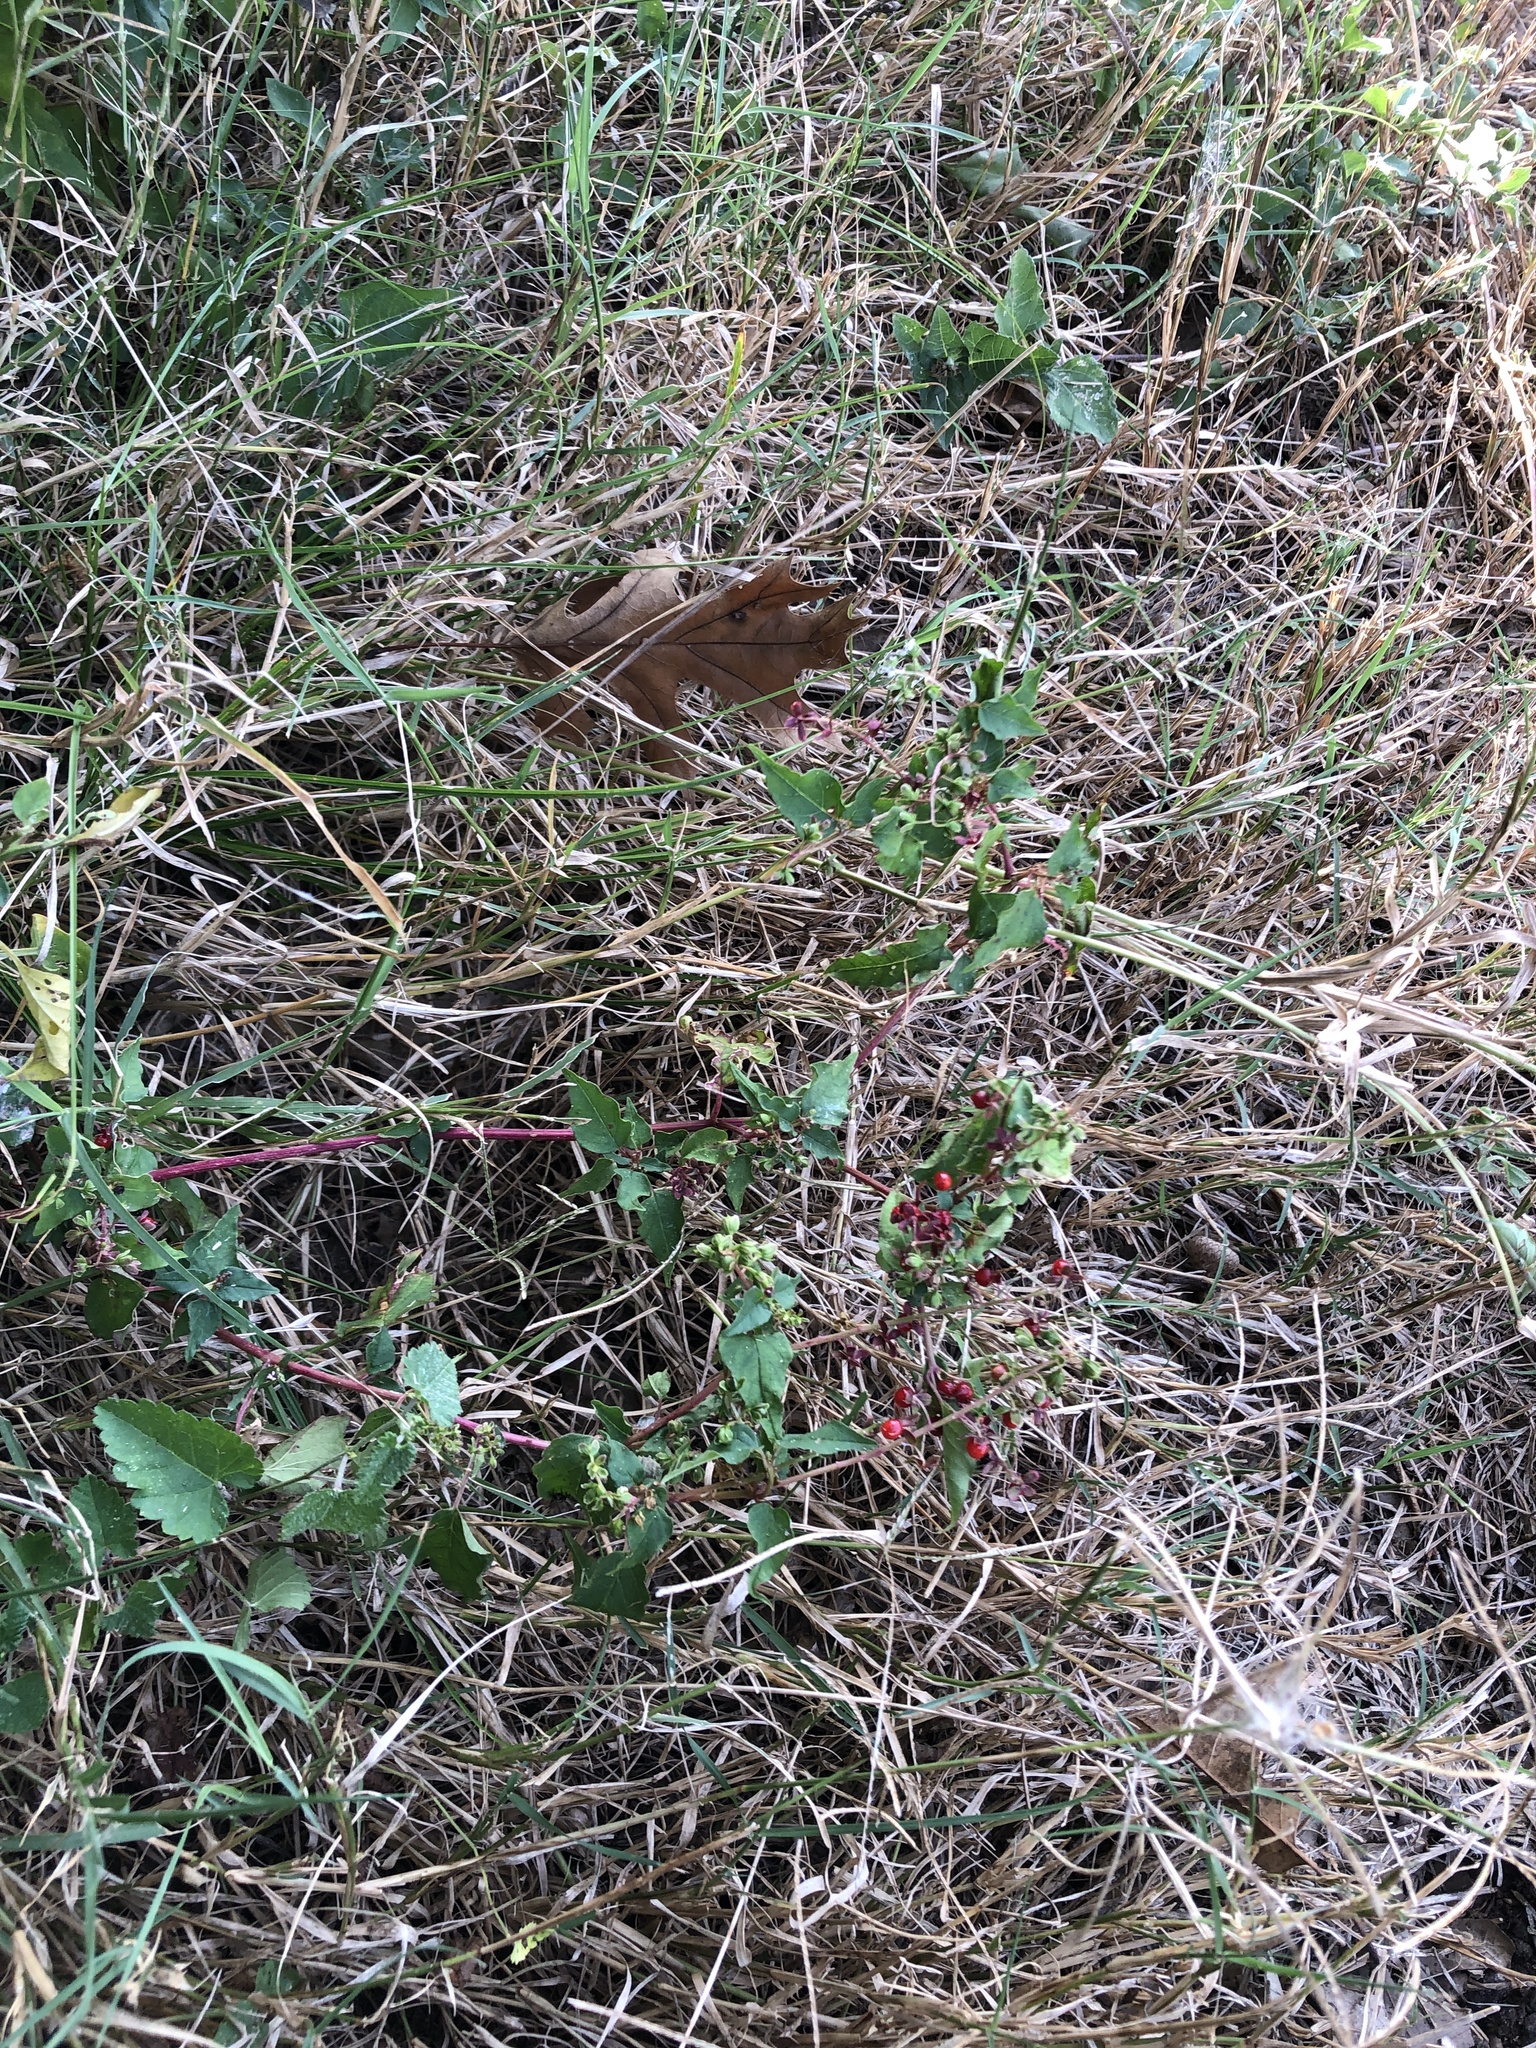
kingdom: Plantae
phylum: Tracheophyta
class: Magnoliopsida
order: Caryophyllales
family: Phytolaccaceae
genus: Rivina
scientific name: Rivina humilis
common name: Rougeplant
